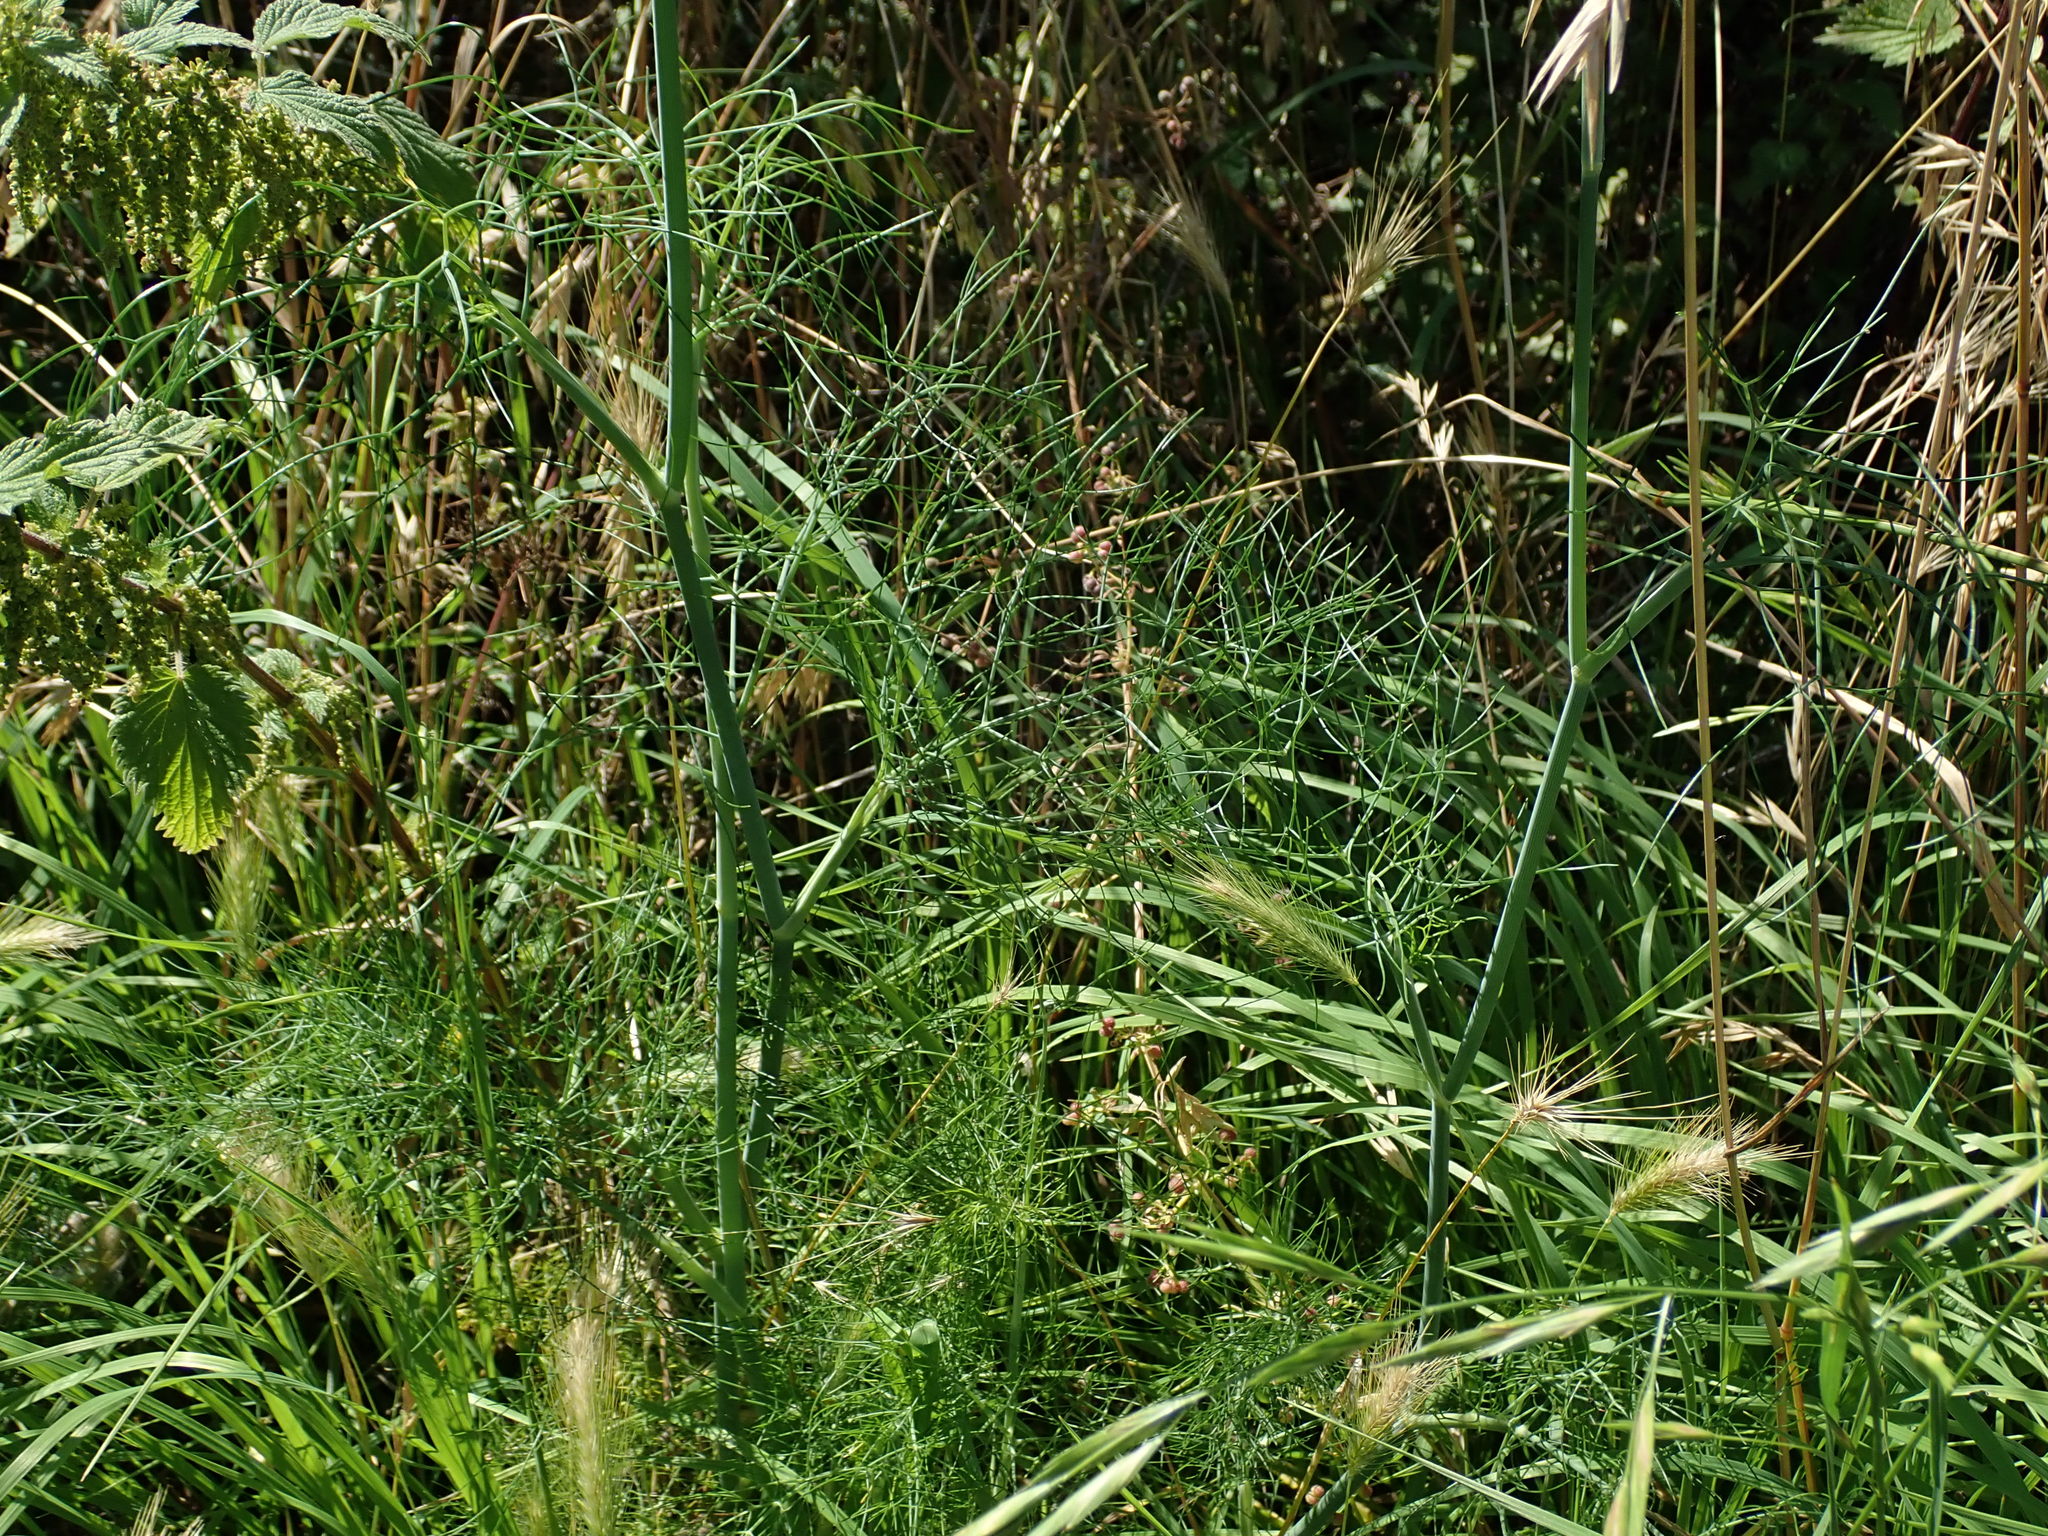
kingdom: Plantae
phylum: Tracheophyta
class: Magnoliopsida
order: Apiales
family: Apiaceae
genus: Foeniculum
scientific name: Foeniculum vulgare
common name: Fennel
